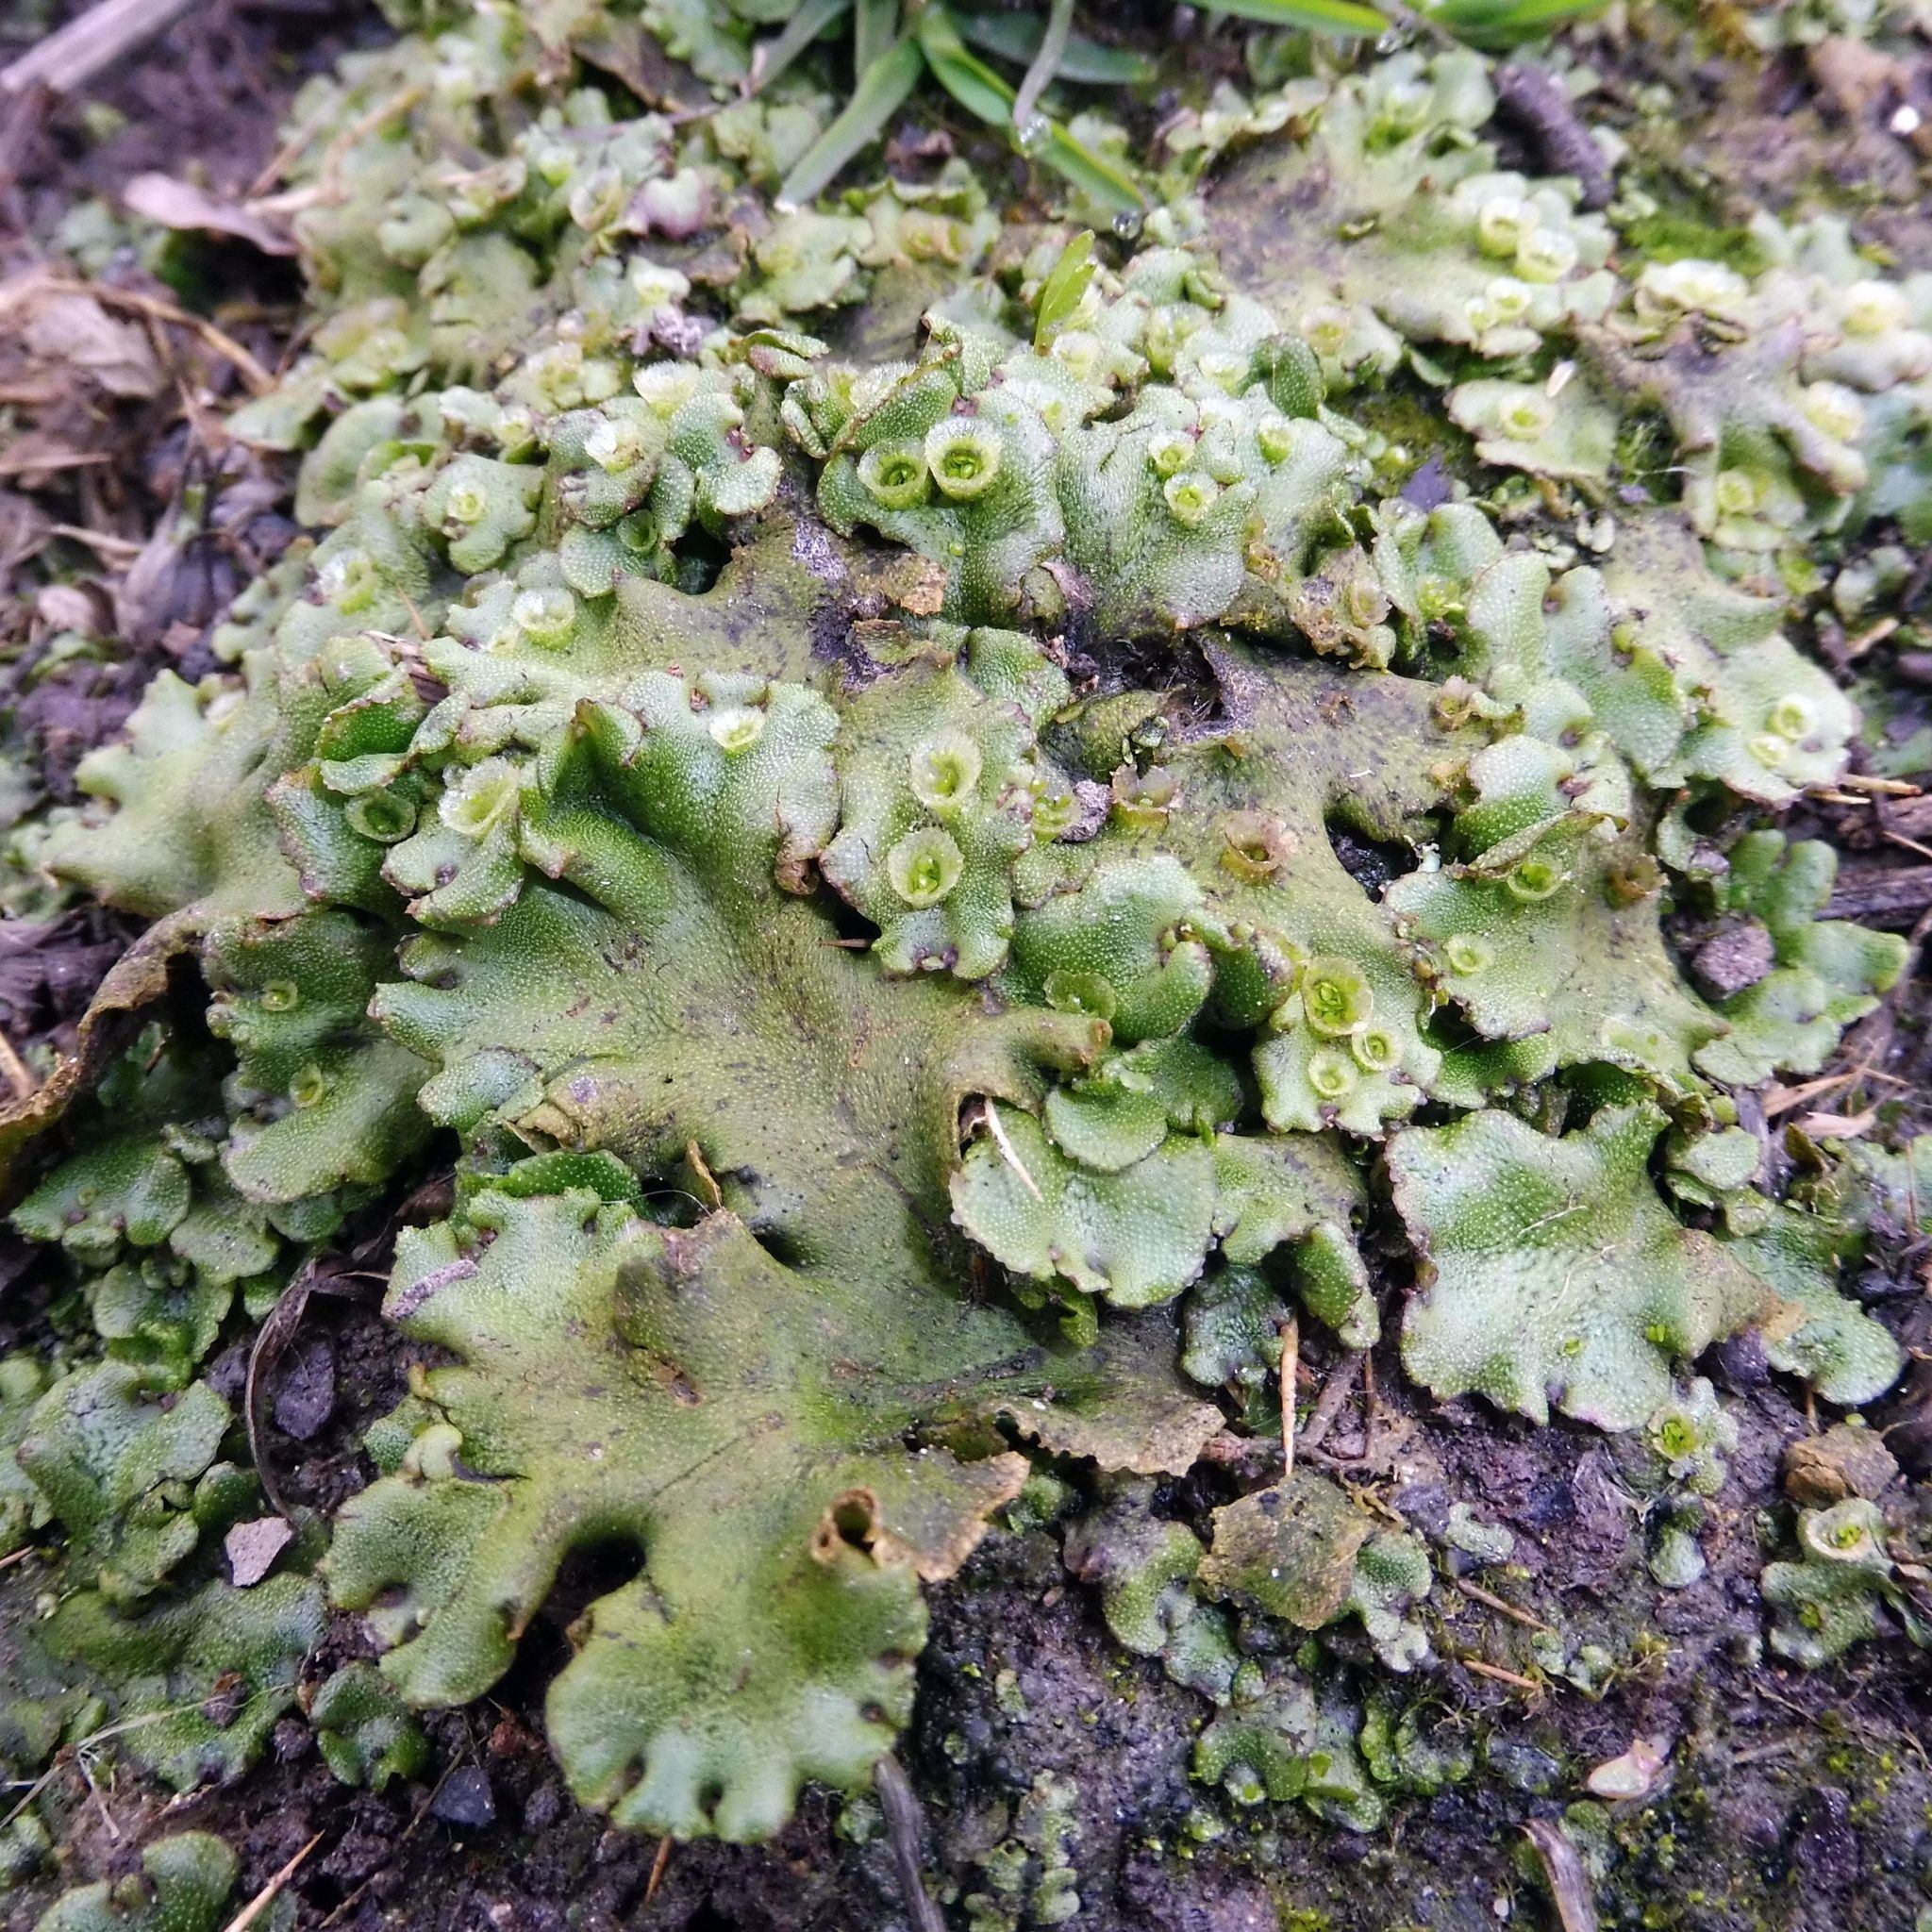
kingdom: Plantae
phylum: Marchantiophyta
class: Marchantiopsida
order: Marchantiales
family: Marchantiaceae
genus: Marchantia
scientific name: Marchantia polymorpha
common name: Common liverwort
